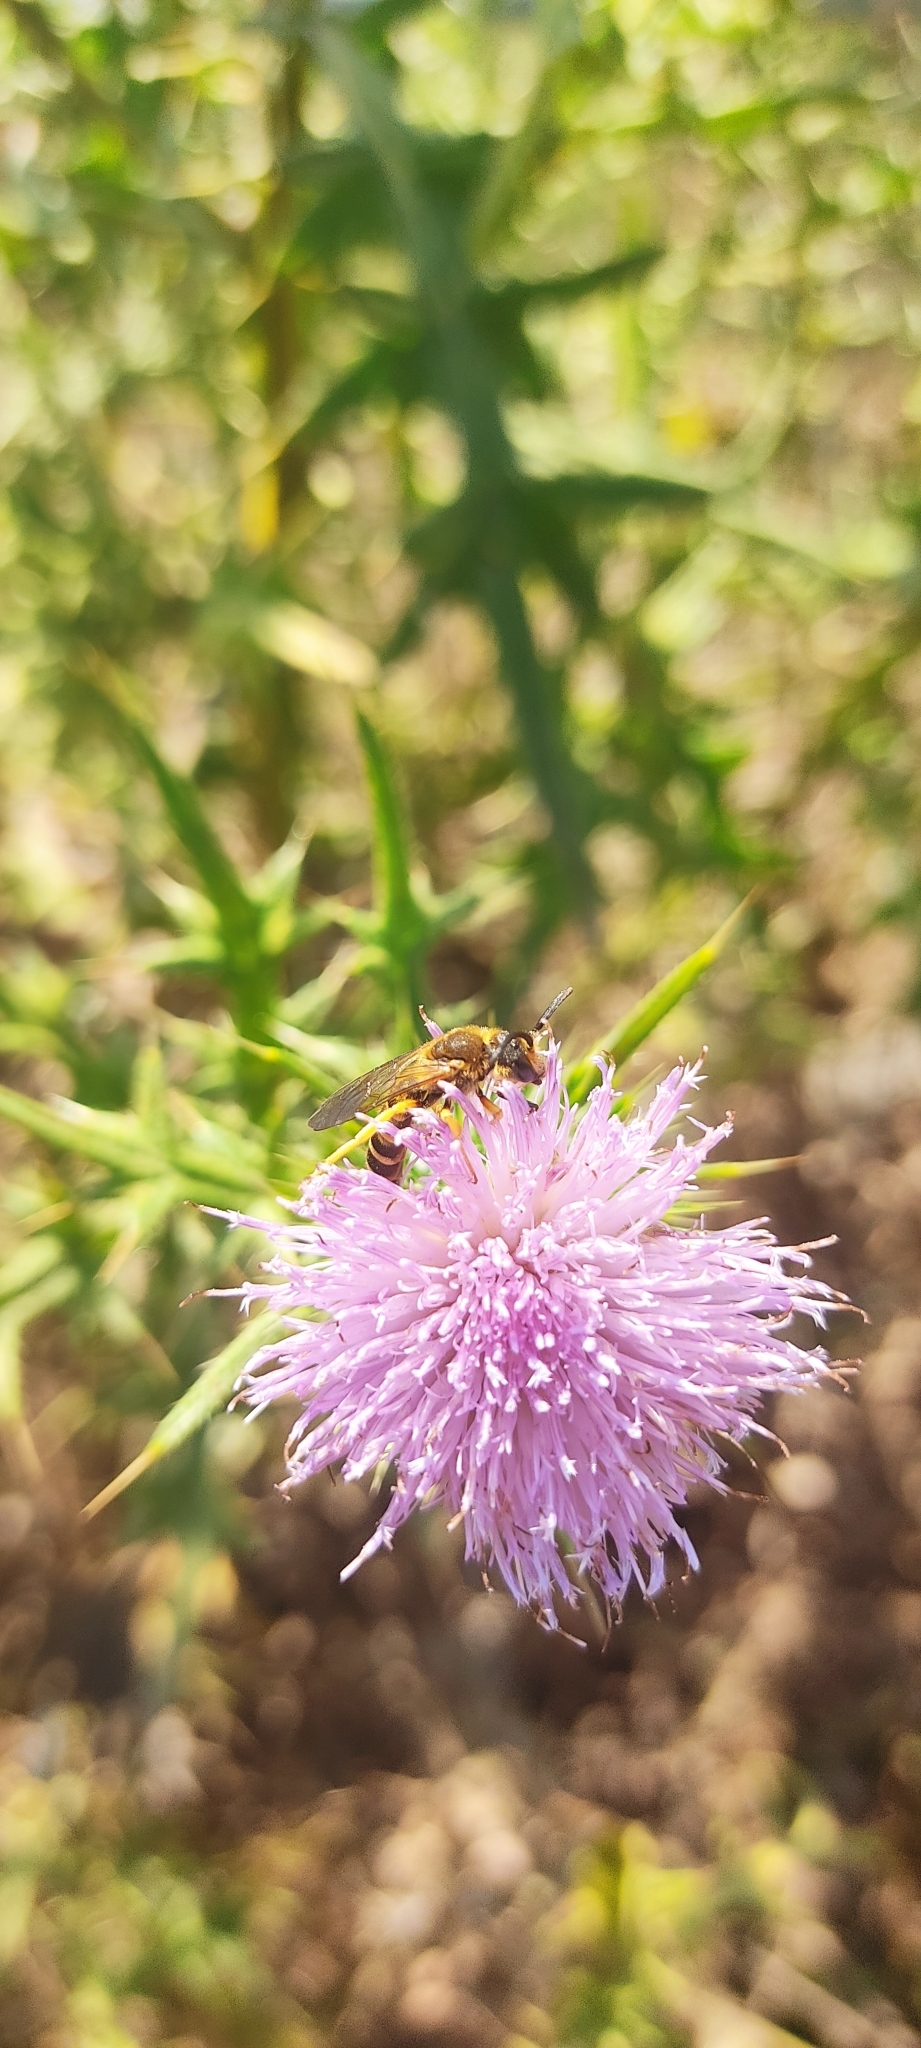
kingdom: Animalia
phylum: Arthropoda
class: Insecta
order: Hymenoptera
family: Halictidae
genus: Halictus
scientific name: Halictus scabiosae
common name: Great banded furrow bee
